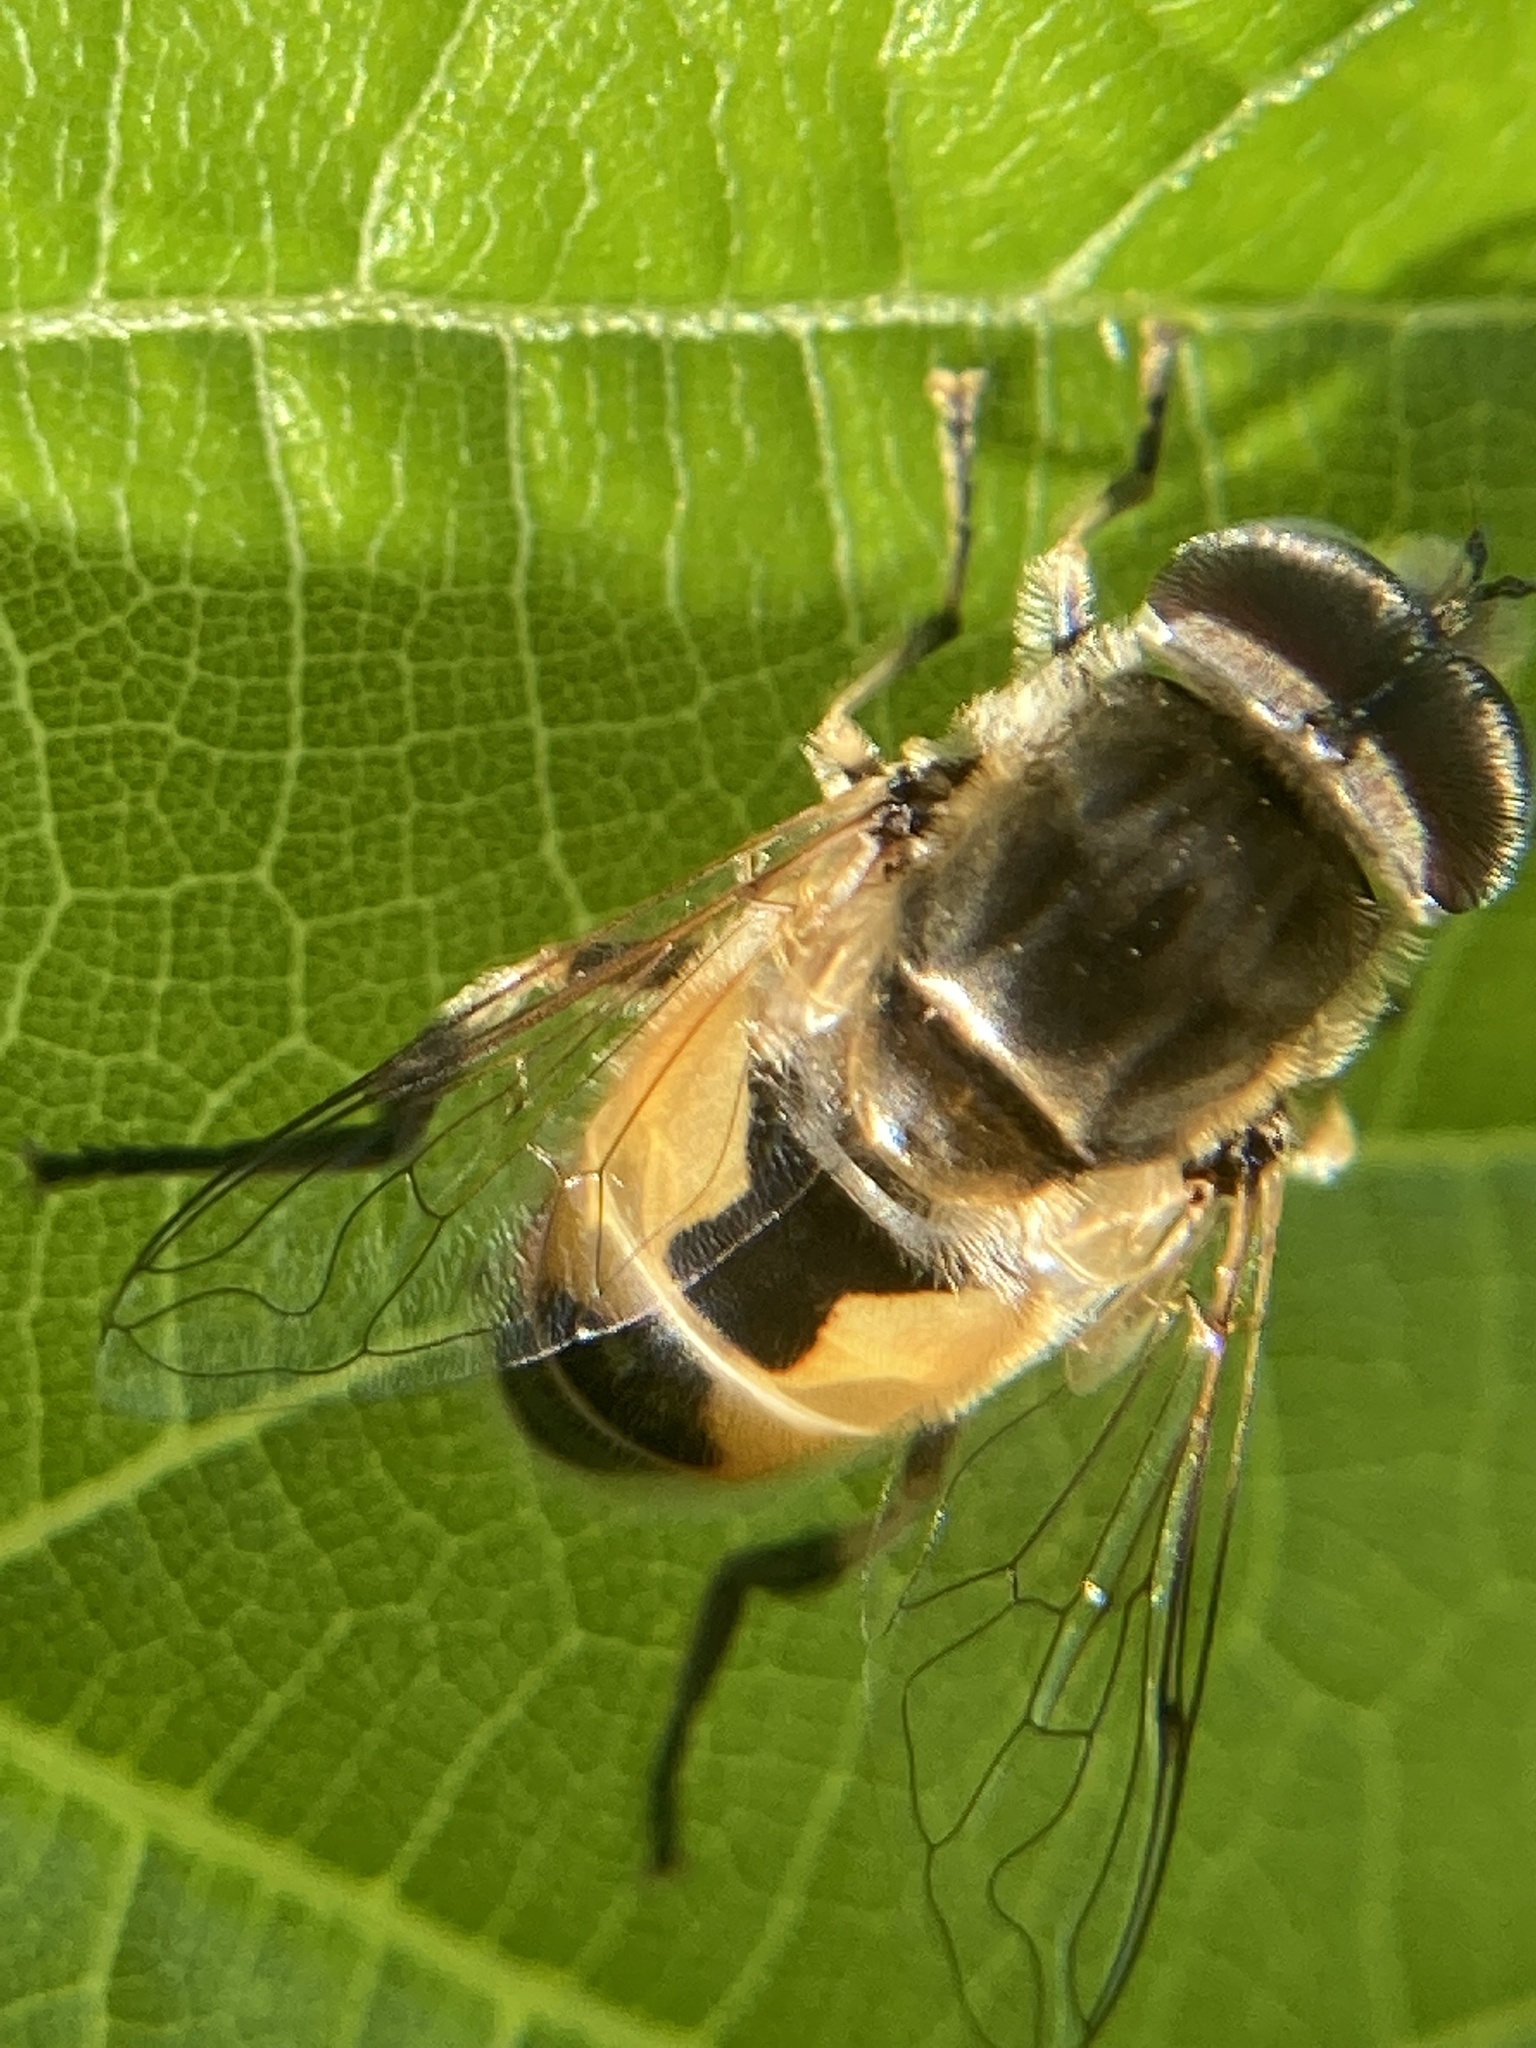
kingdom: Animalia
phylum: Arthropoda
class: Insecta
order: Diptera
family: Syrphidae
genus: Eristalis
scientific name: Eristalis arbustorum
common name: Hover fly
